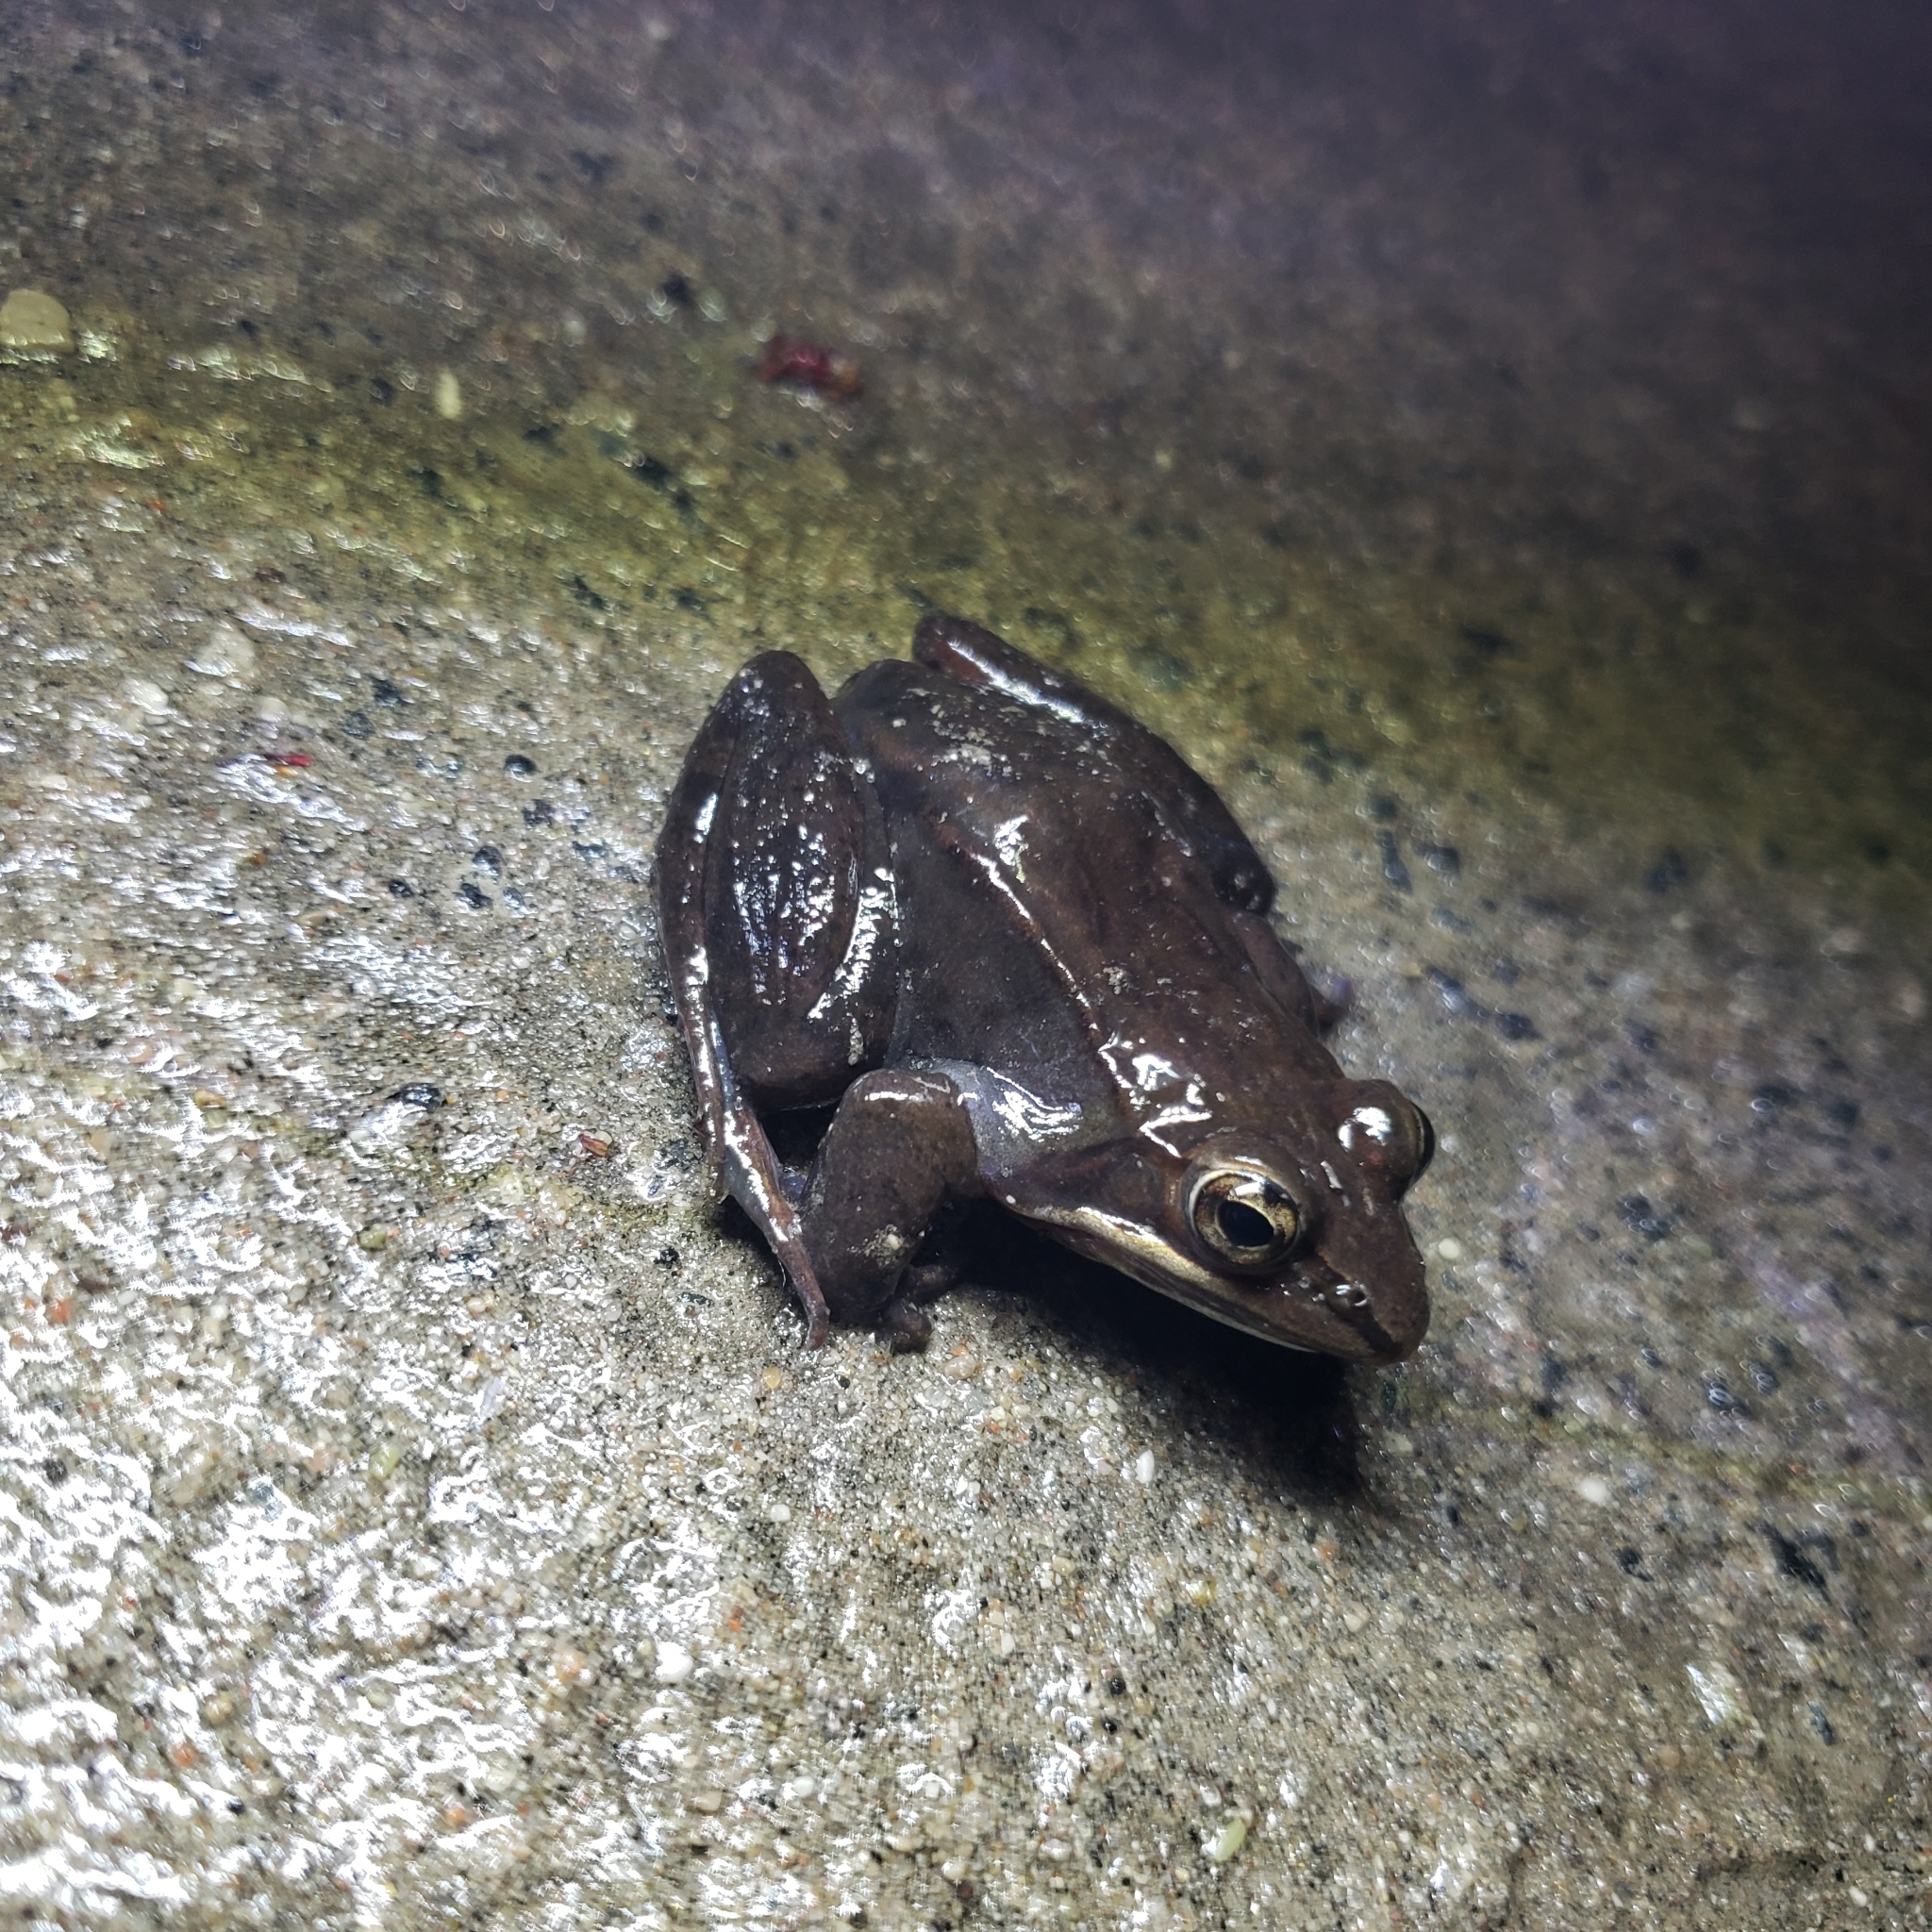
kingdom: Animalia
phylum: Chordata
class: Amphibia
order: Anura
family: Ranidae
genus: Lithobates
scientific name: Lithobates sylvaticus
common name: Wood frog
